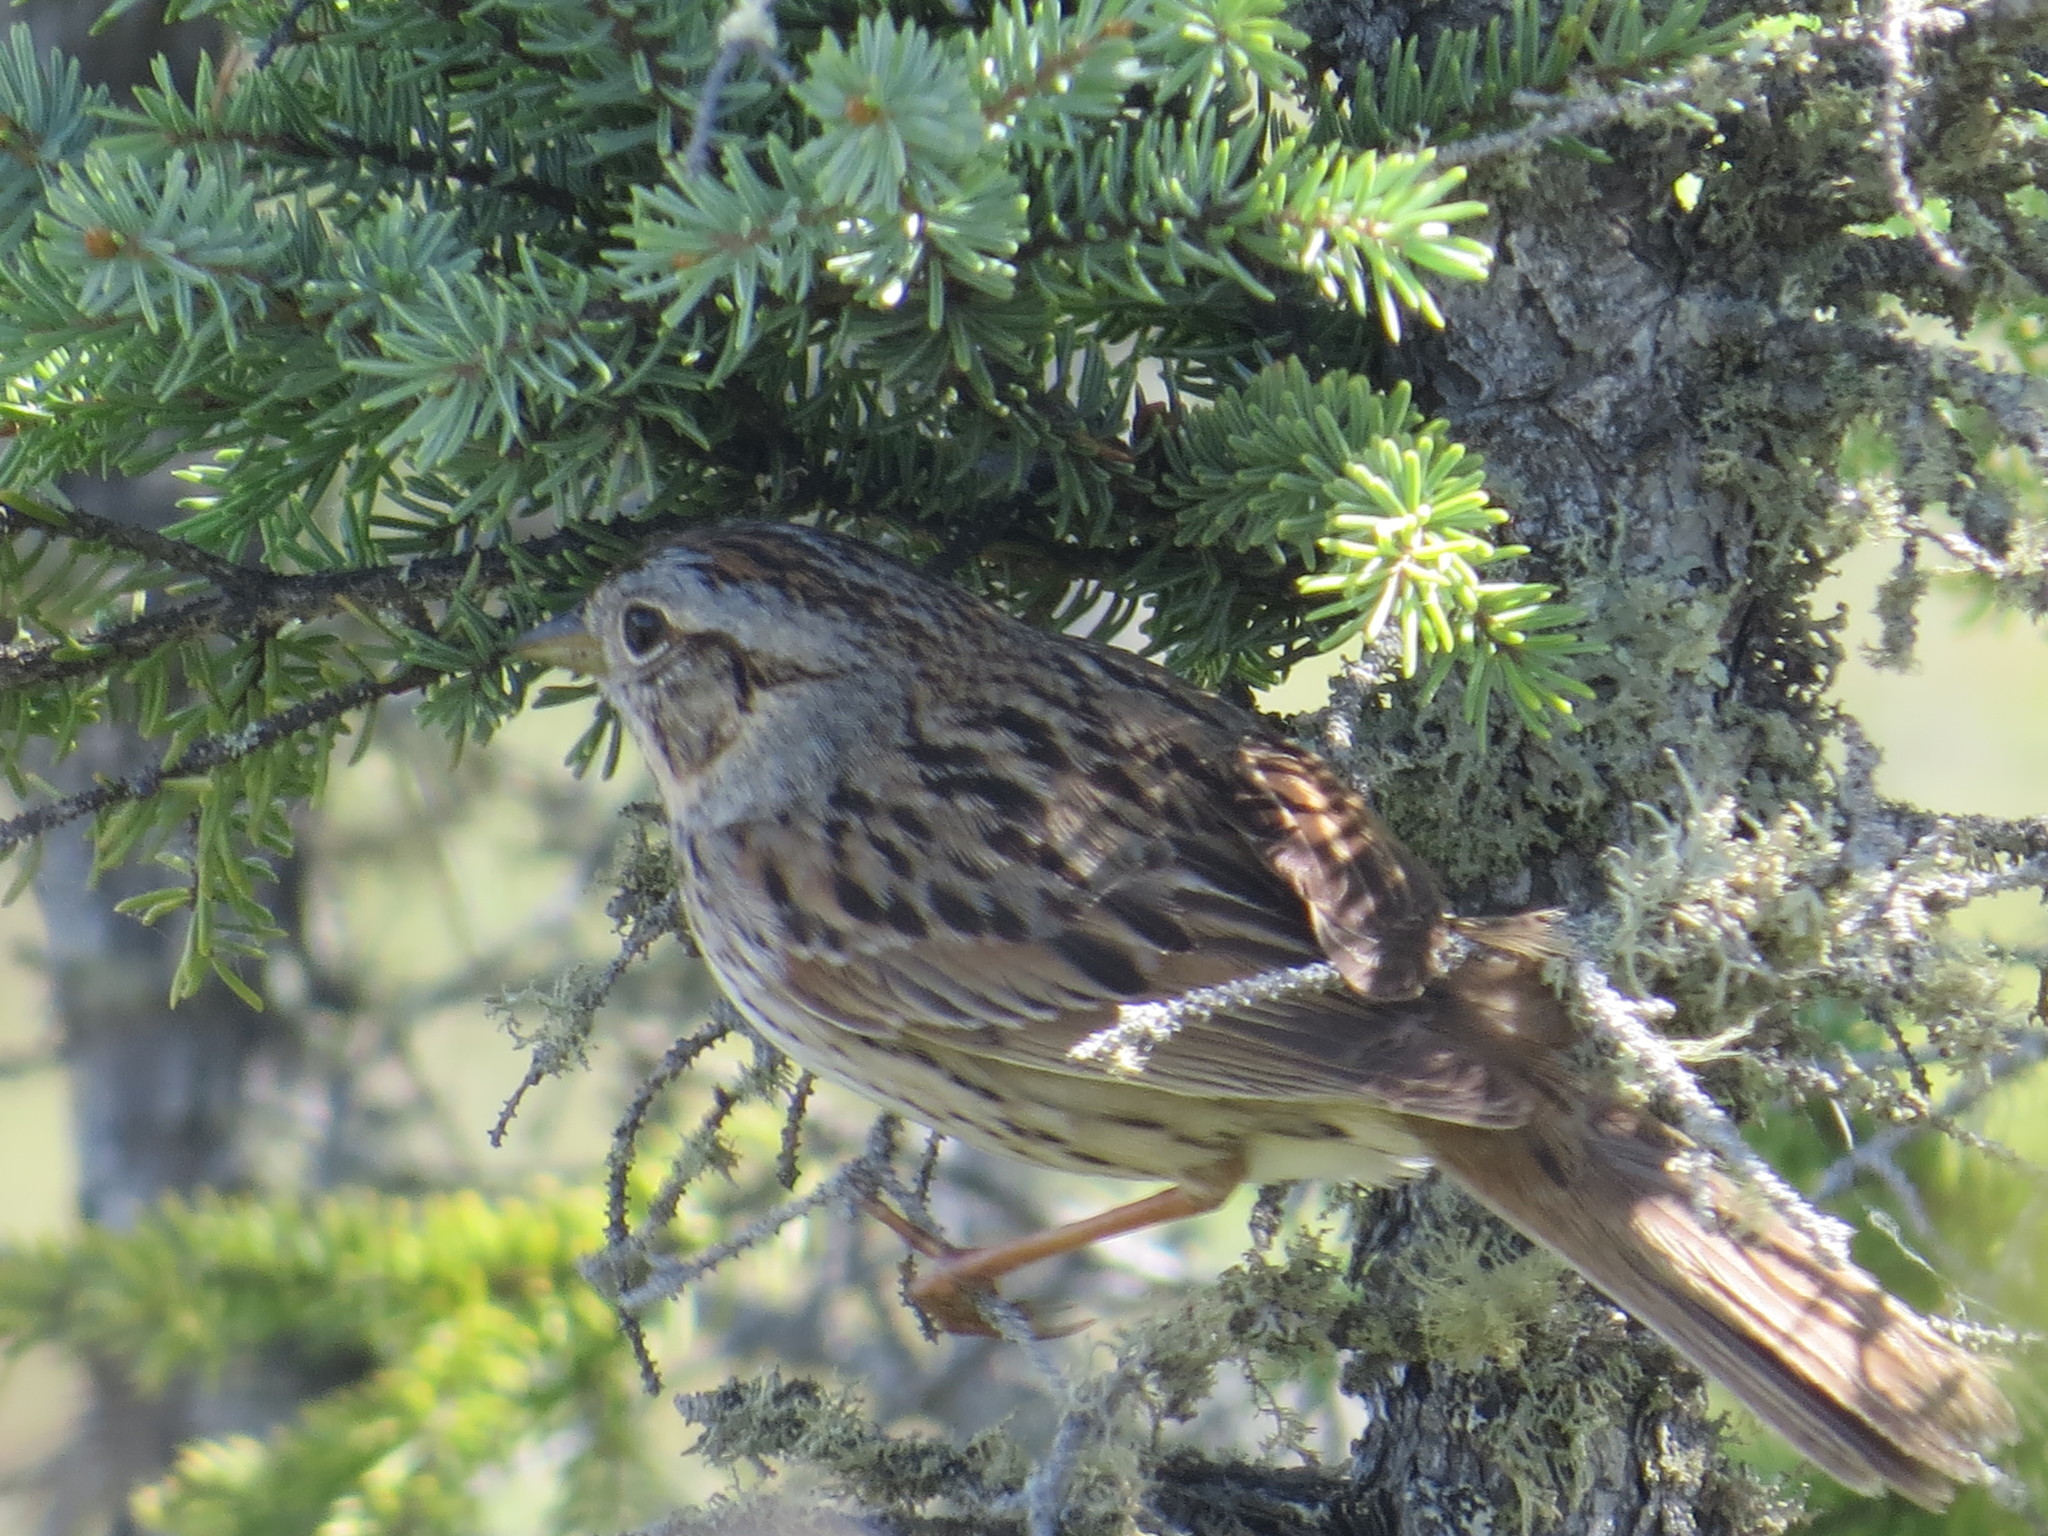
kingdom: Animalia
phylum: Chordata
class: Aves
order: Passeriformes
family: Passerellidae
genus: Melospiza
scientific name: Melospiza lincolnii
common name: Lincoln's sparrow
